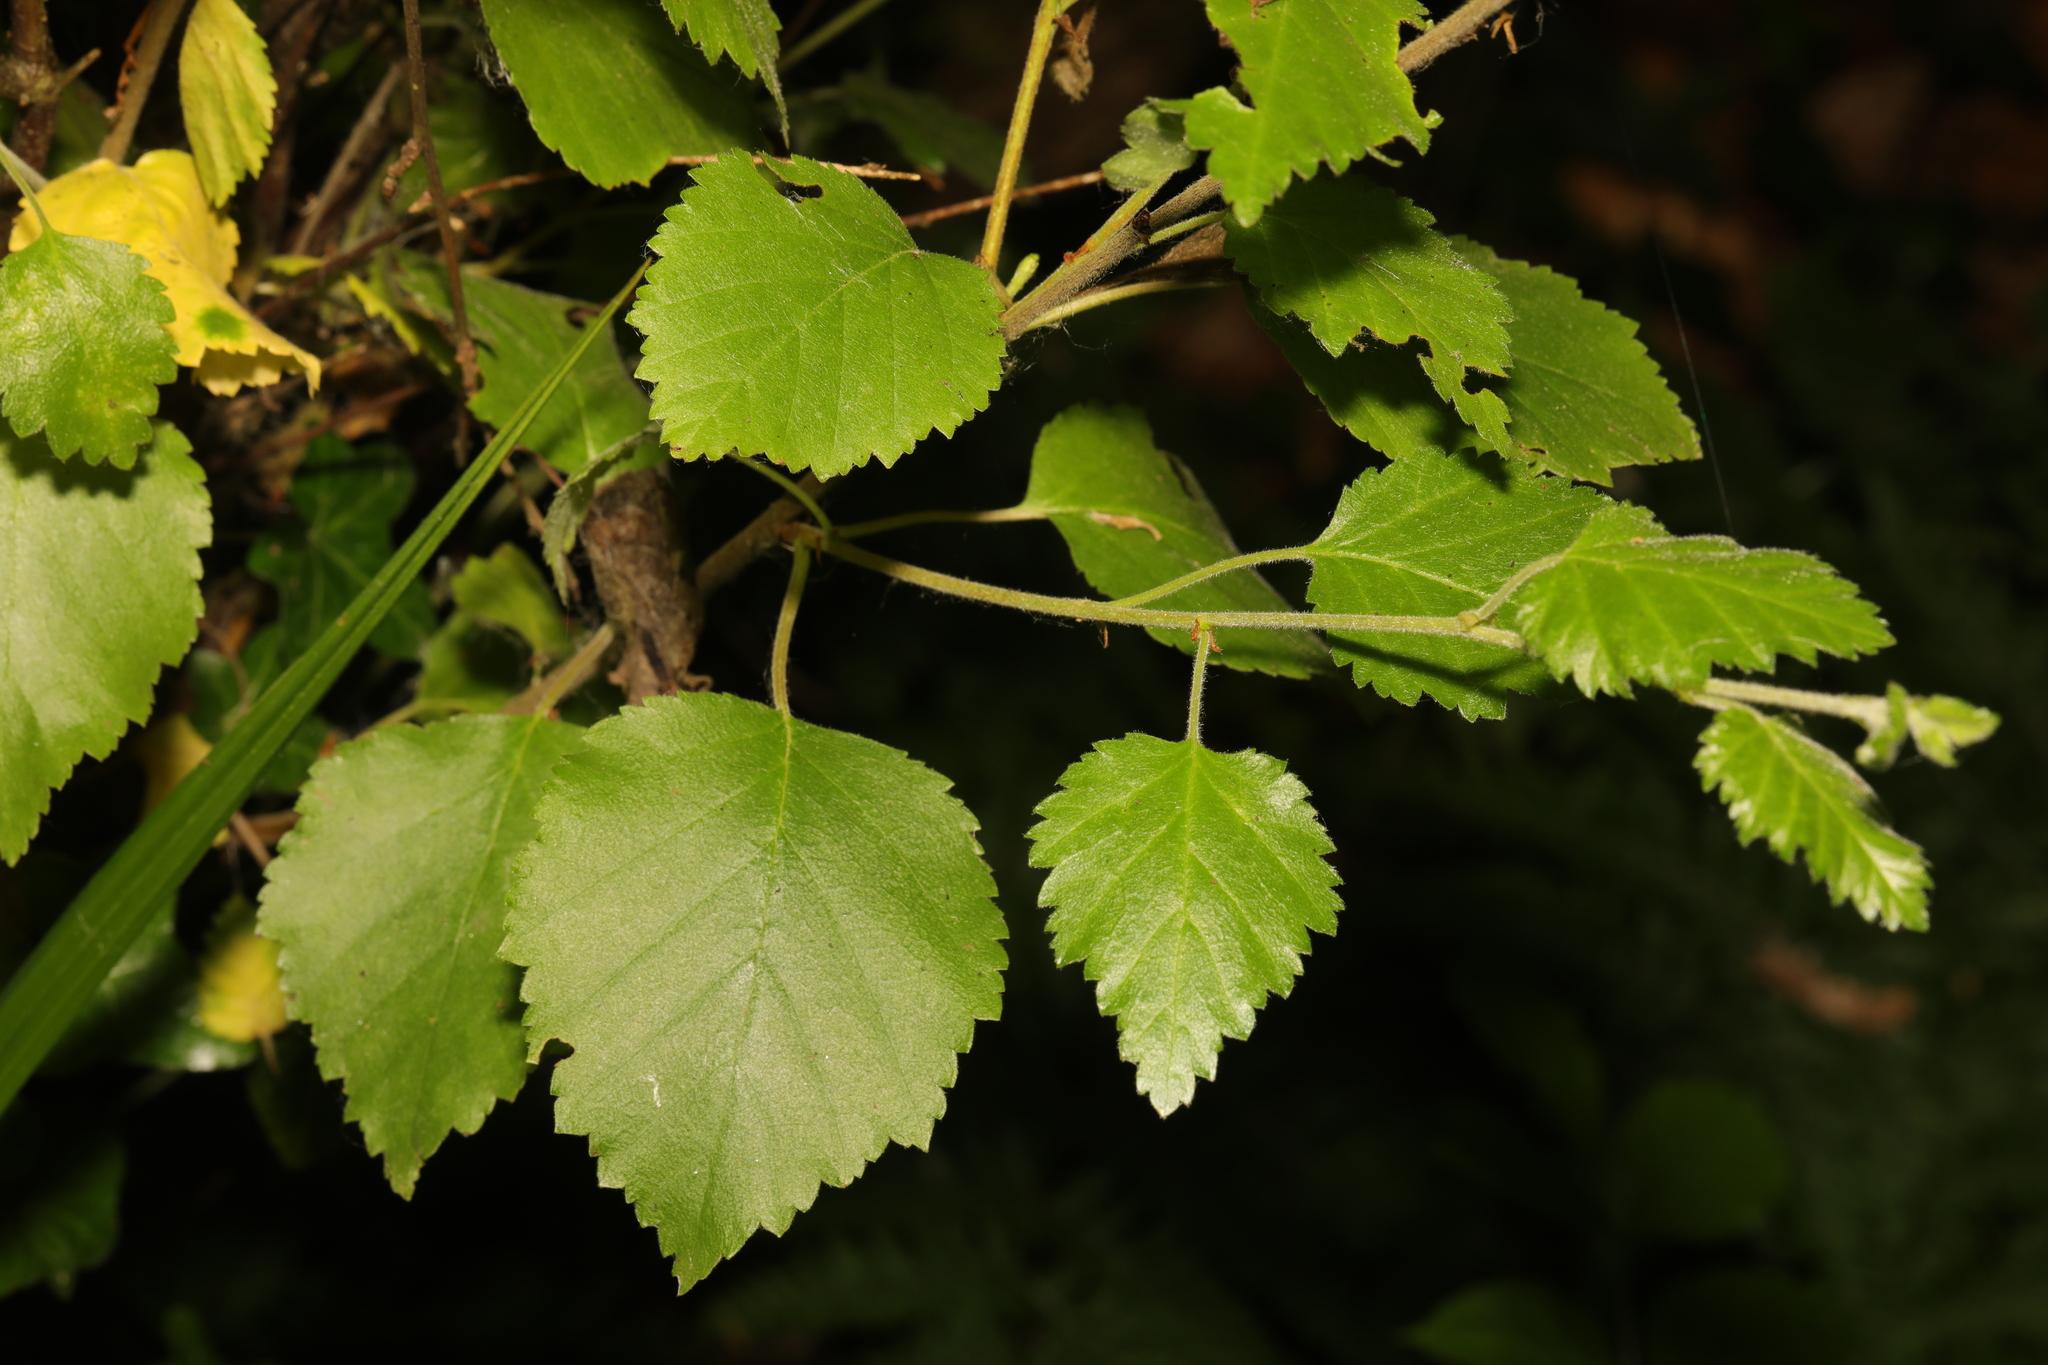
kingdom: Plantae
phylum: Tracheophyta
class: Magnoliopsida
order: Fagales
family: Betulaceae
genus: Betula
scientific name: Betula pubescens
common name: Downy birch
